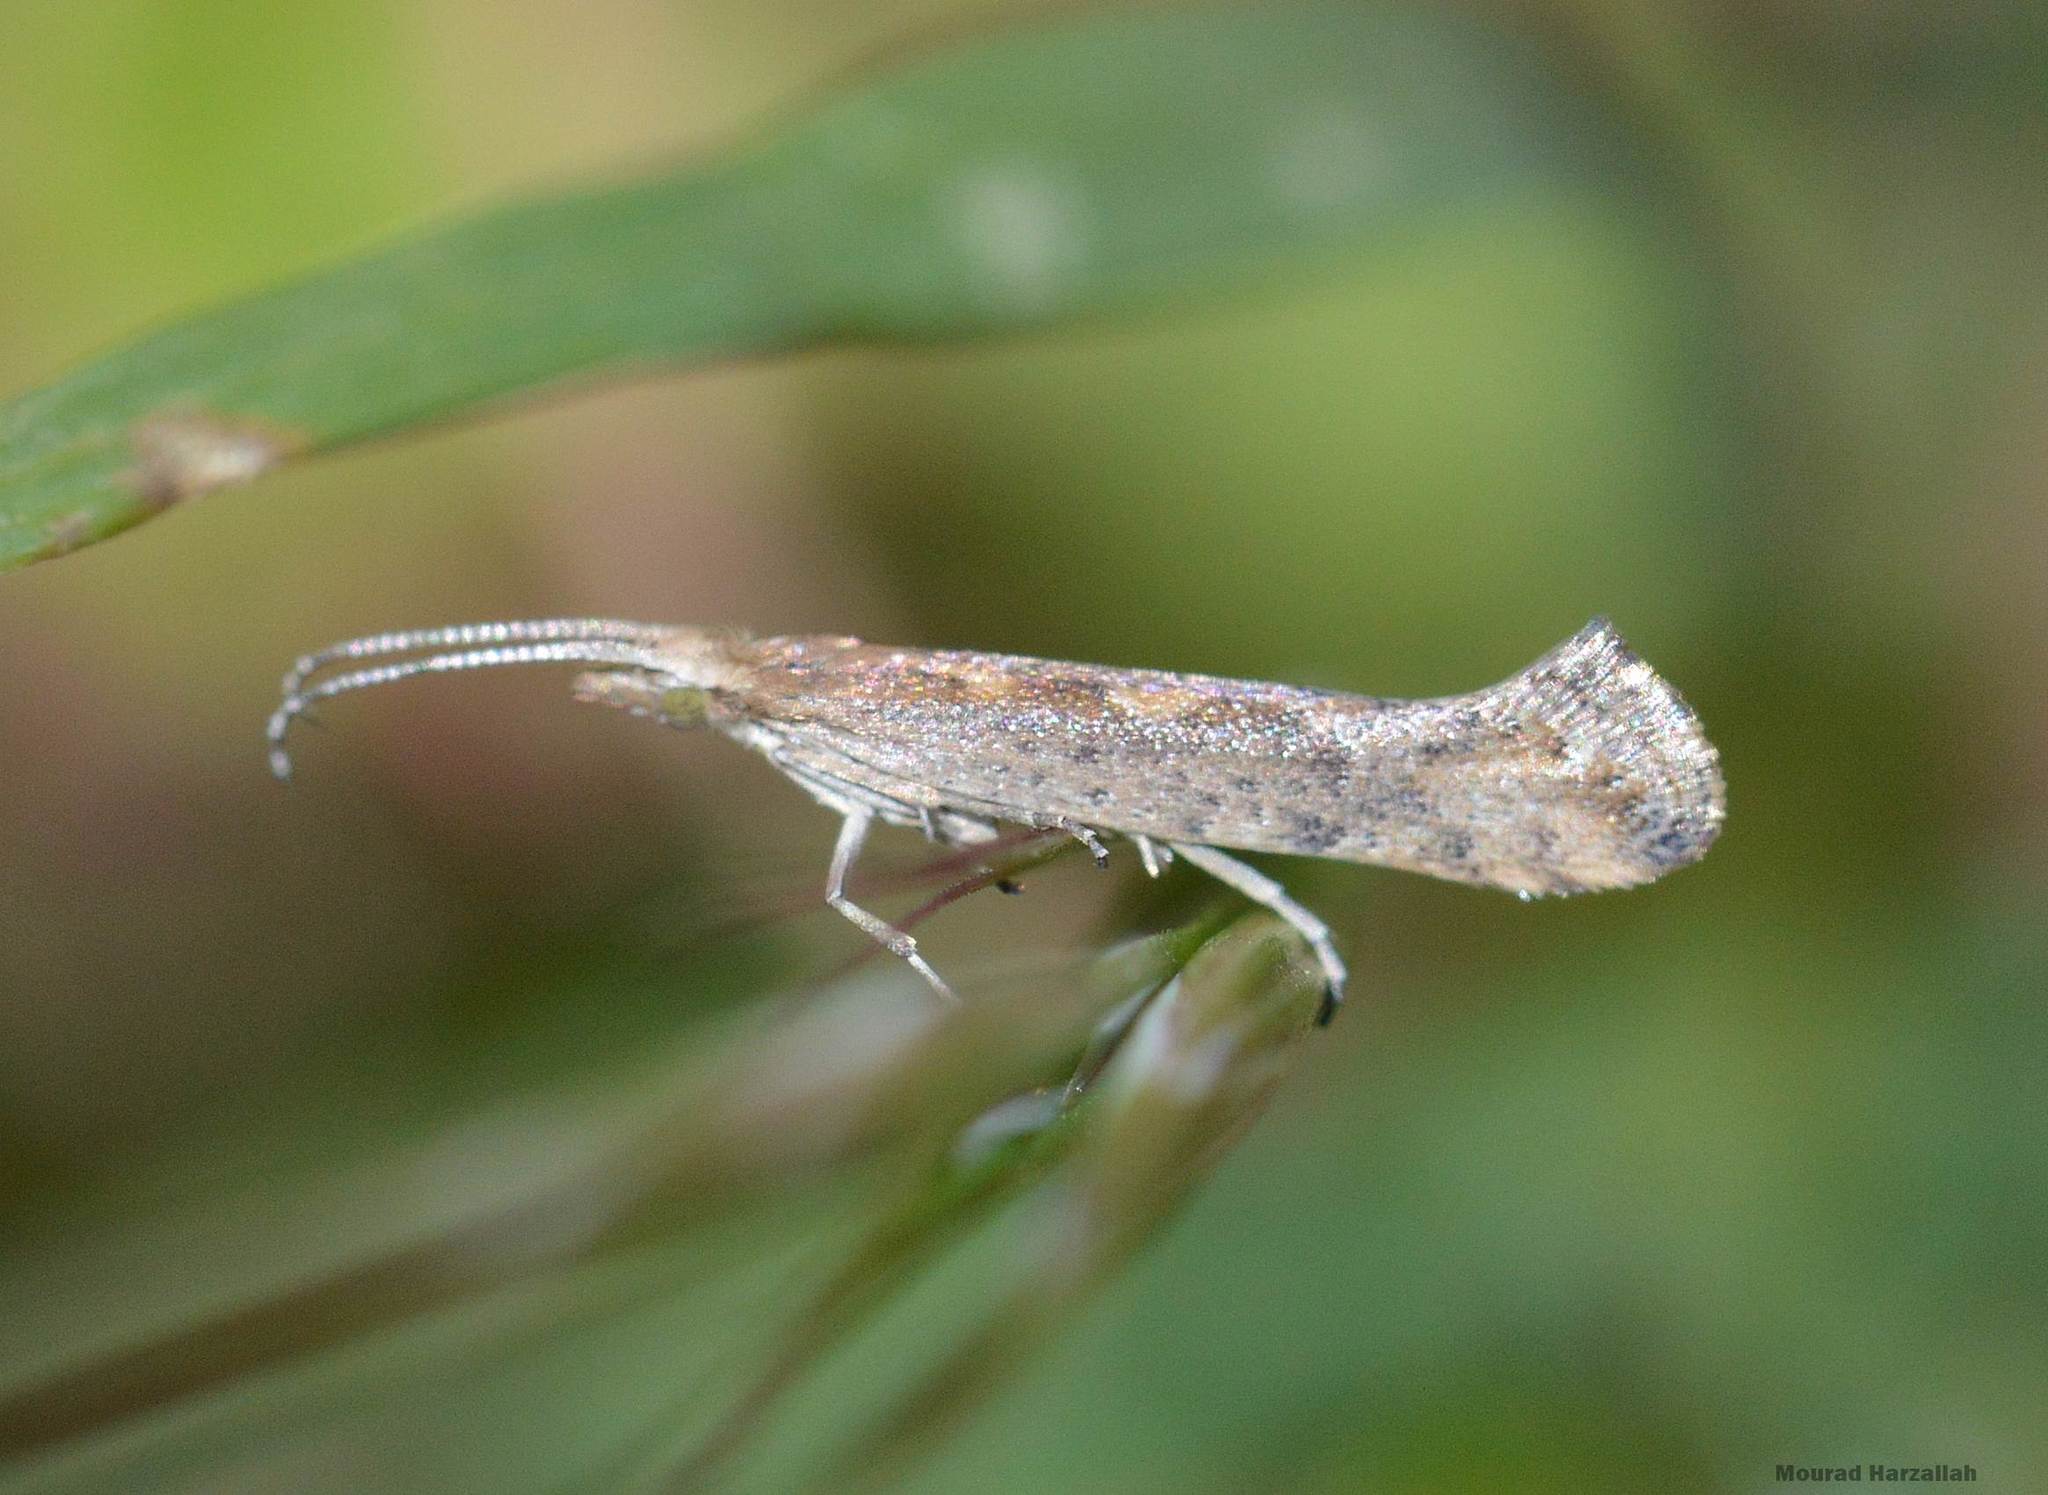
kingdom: Animalia
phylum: Arthropoda
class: Insecta
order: Lepidoptera
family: Plutellidae
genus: Plutella
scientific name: Plutella xylostella
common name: Diamond-back moth
